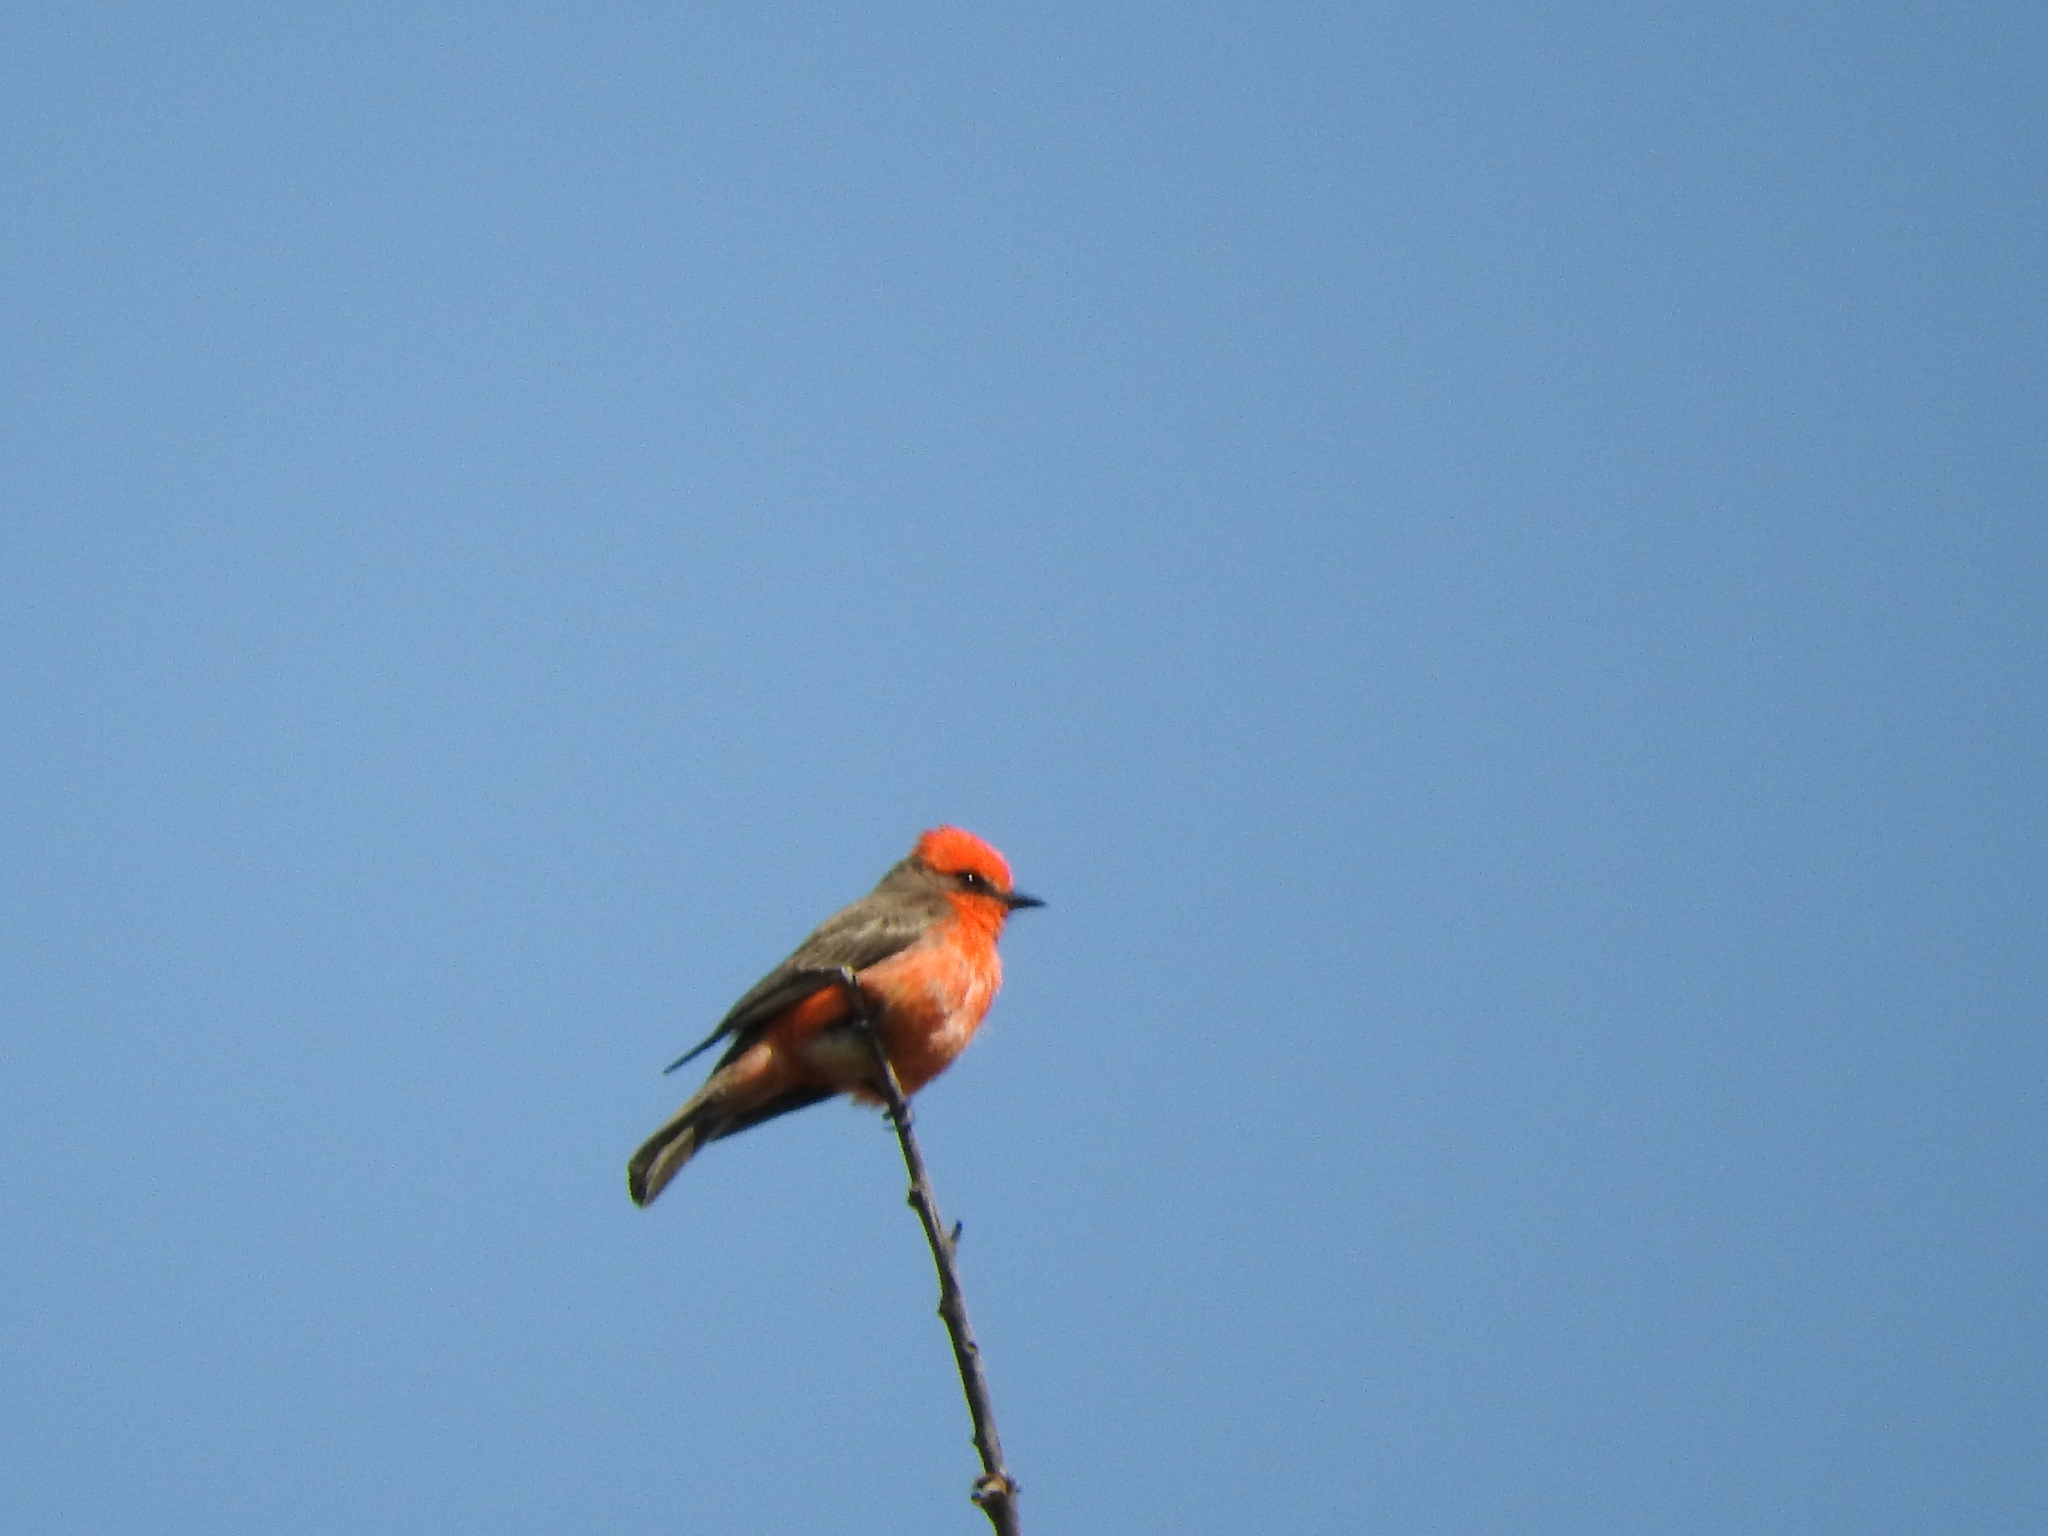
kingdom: Animalia
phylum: Chordata
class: Aves
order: Passeriformes
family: Tyrannidae
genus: Pyrocephalus
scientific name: Pyrocephalus rubinus
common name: Vermilion flycatcher
